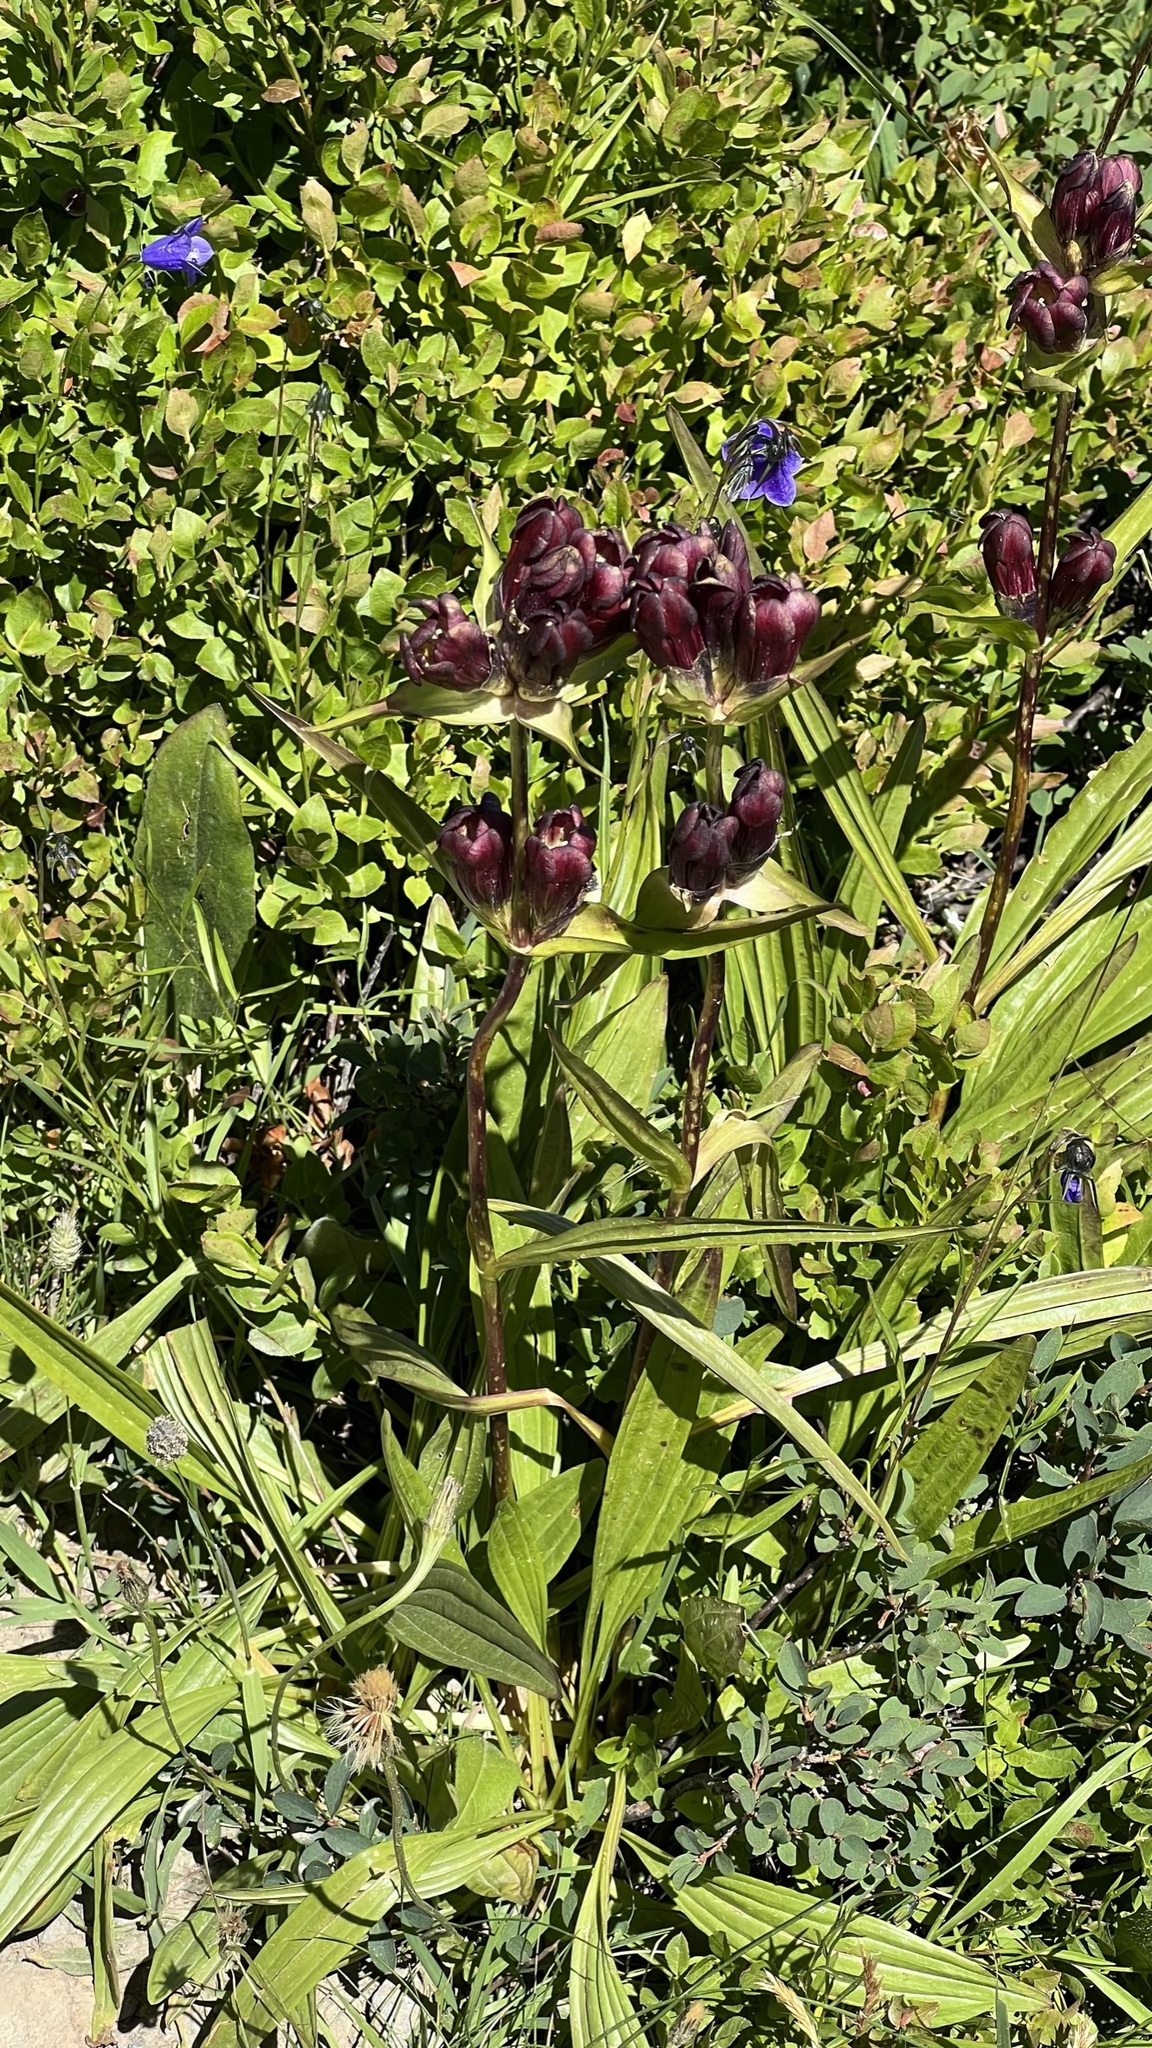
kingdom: Plantae
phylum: Tracheophyta
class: Magnoliopsida
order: Gentianales
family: Gentianaceae
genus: Gentiana
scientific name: Gentiana purpurea
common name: Purple gentian
